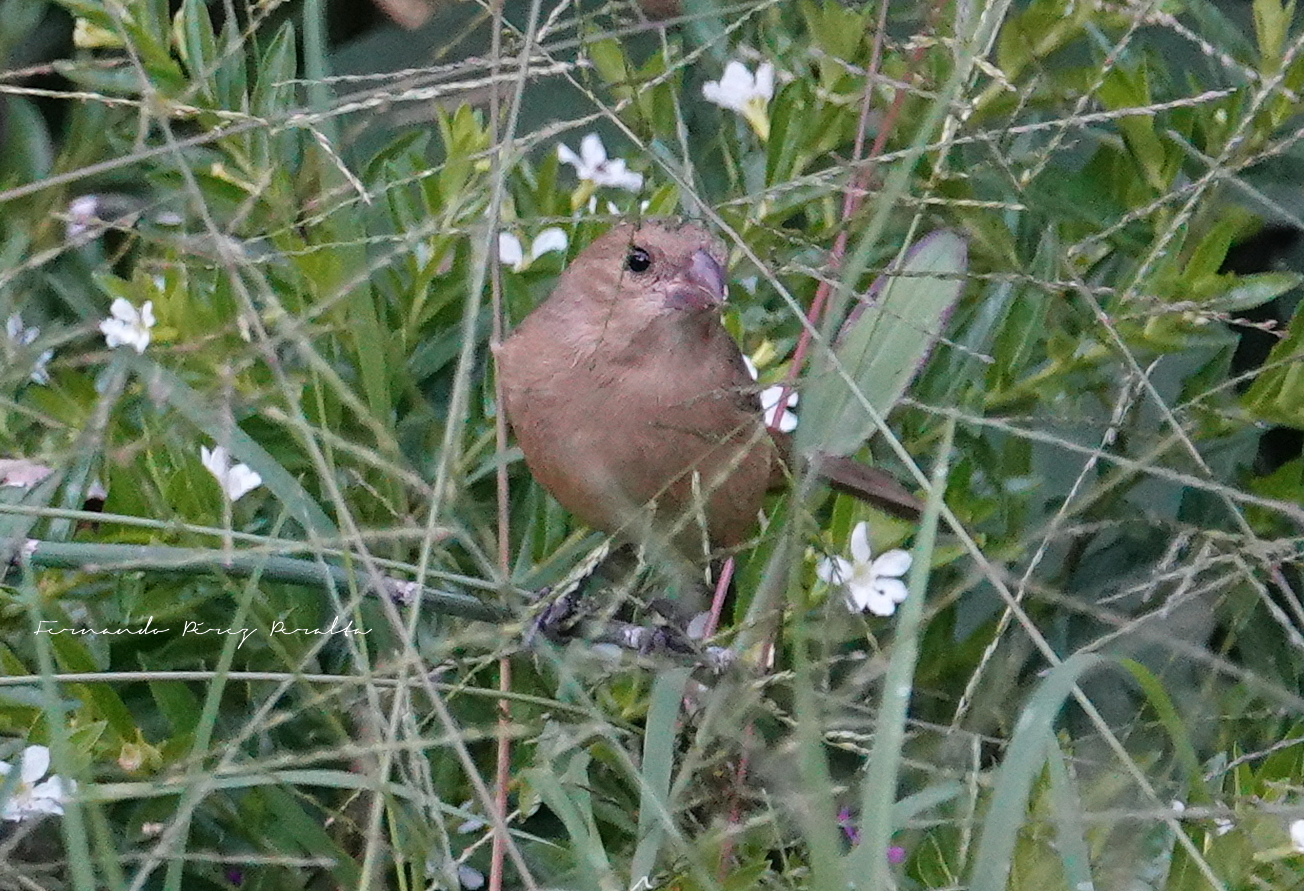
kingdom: Animalia
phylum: Chordata
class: Aves
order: Passeriformes
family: Thraupidae
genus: Sporophila
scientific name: Sporophila torqueola
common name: White-collared seedeater
